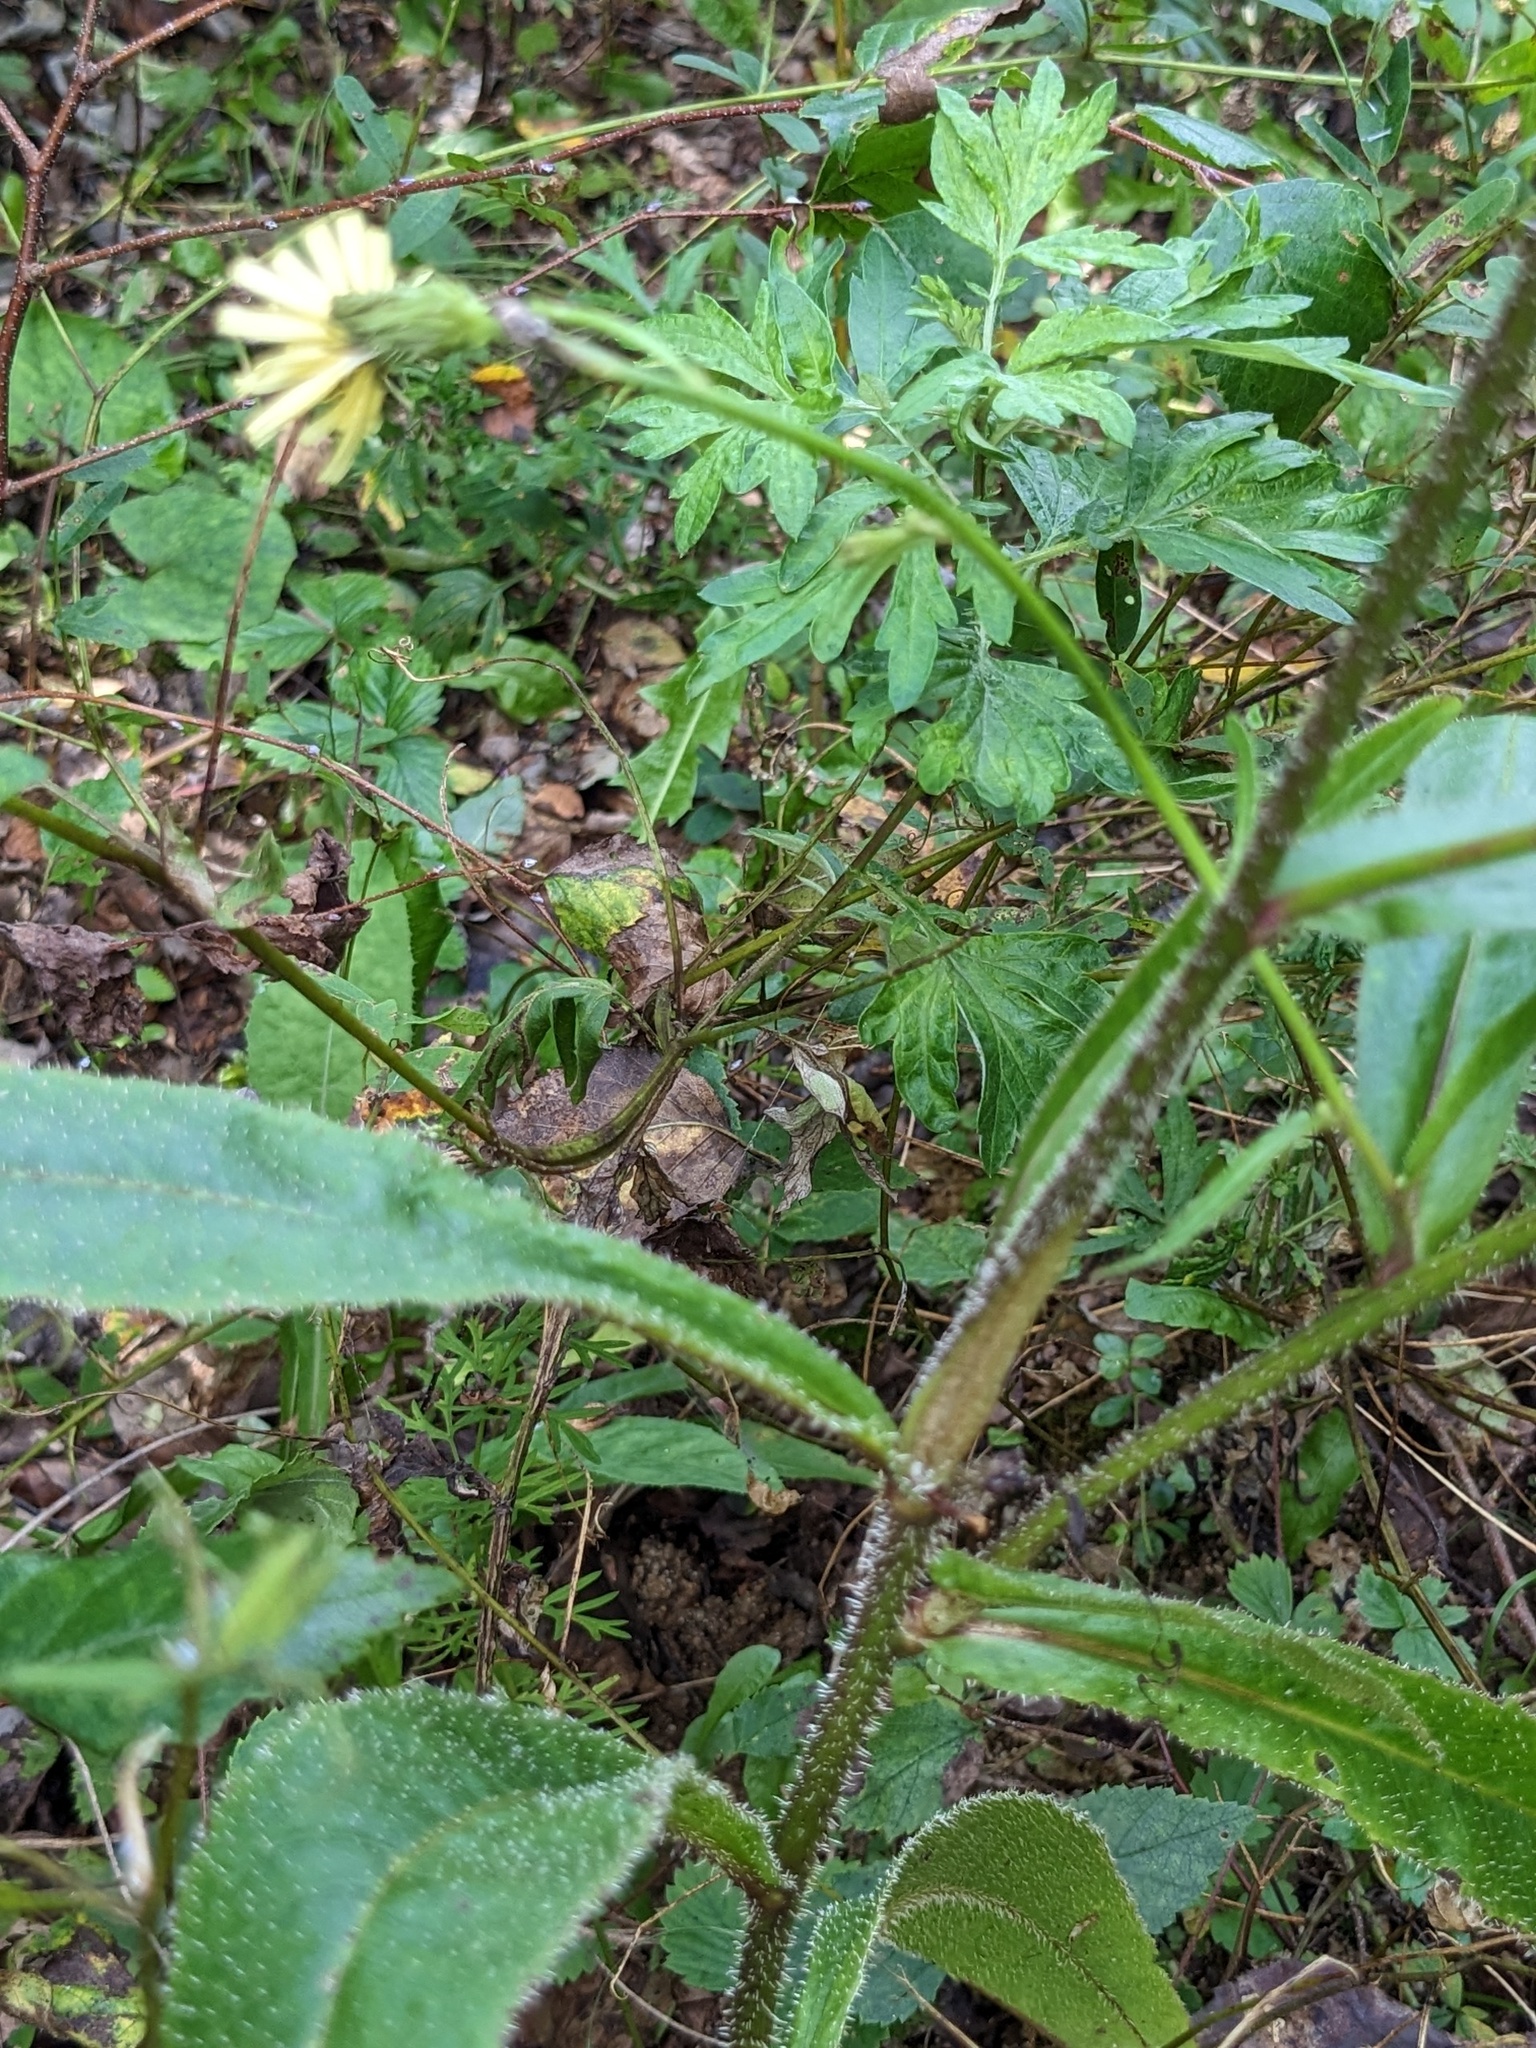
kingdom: Plantae
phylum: Tracheophyta
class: Magnoliopsida
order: Asterales
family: Asteraceae
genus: Picris
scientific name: Picris davurica
